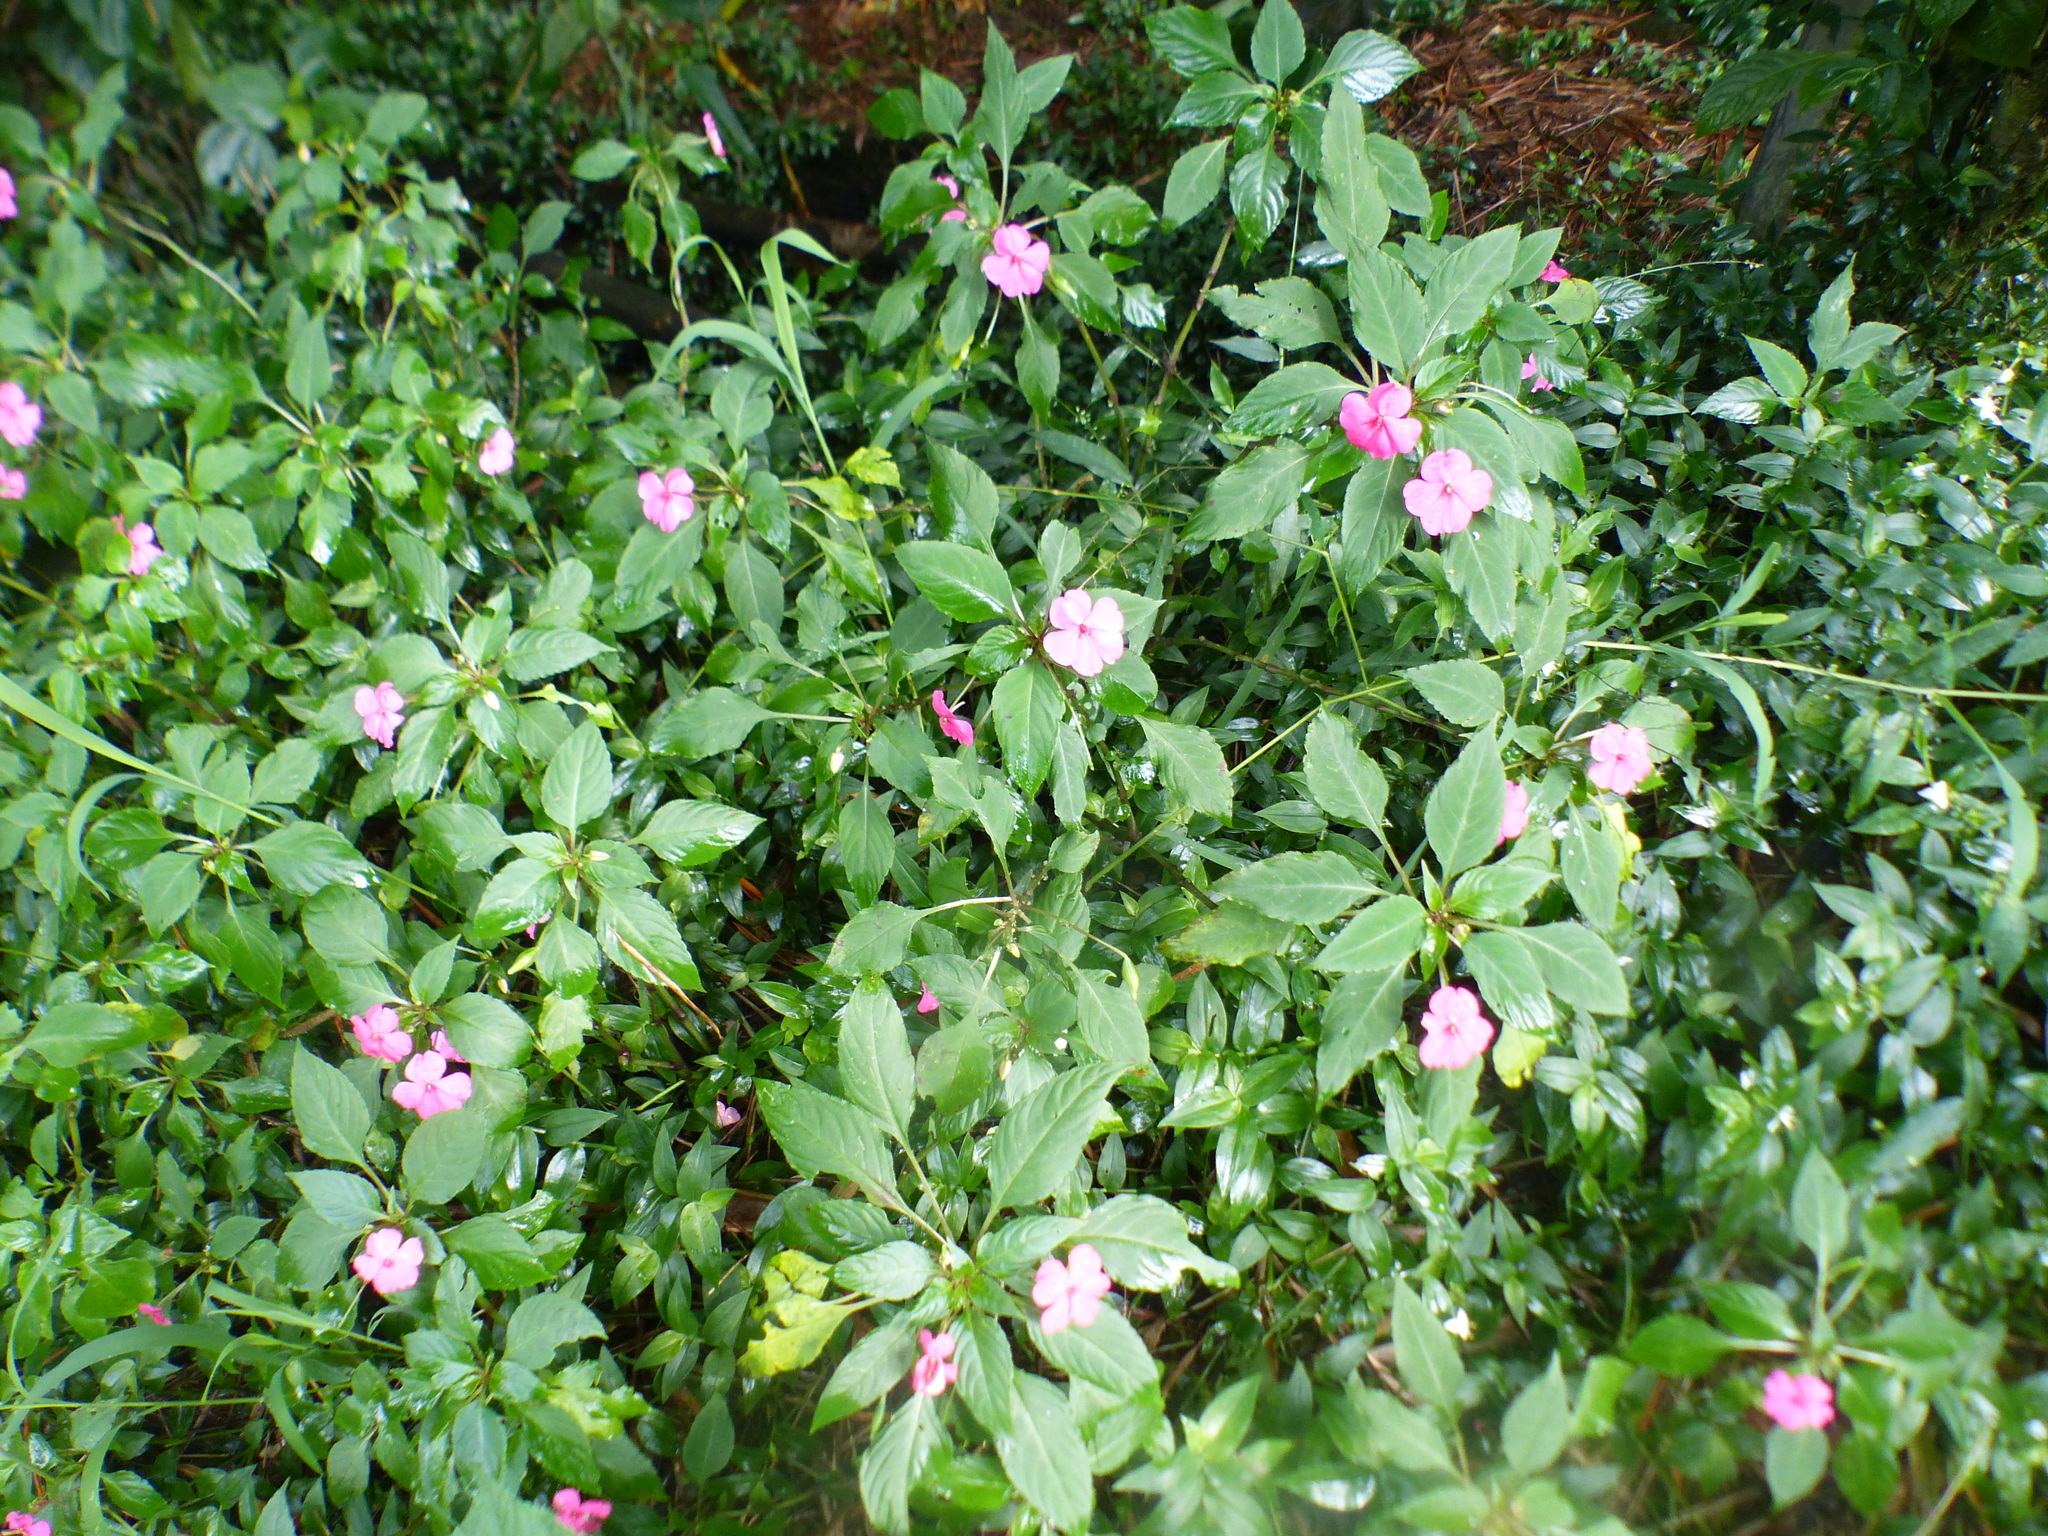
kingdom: Plantae
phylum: Tracheophyta
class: Magnoliopsida
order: Ericales
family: Balsaminaceae
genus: Impatiens
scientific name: Impatiens walleriana
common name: Buzzy lizzy
